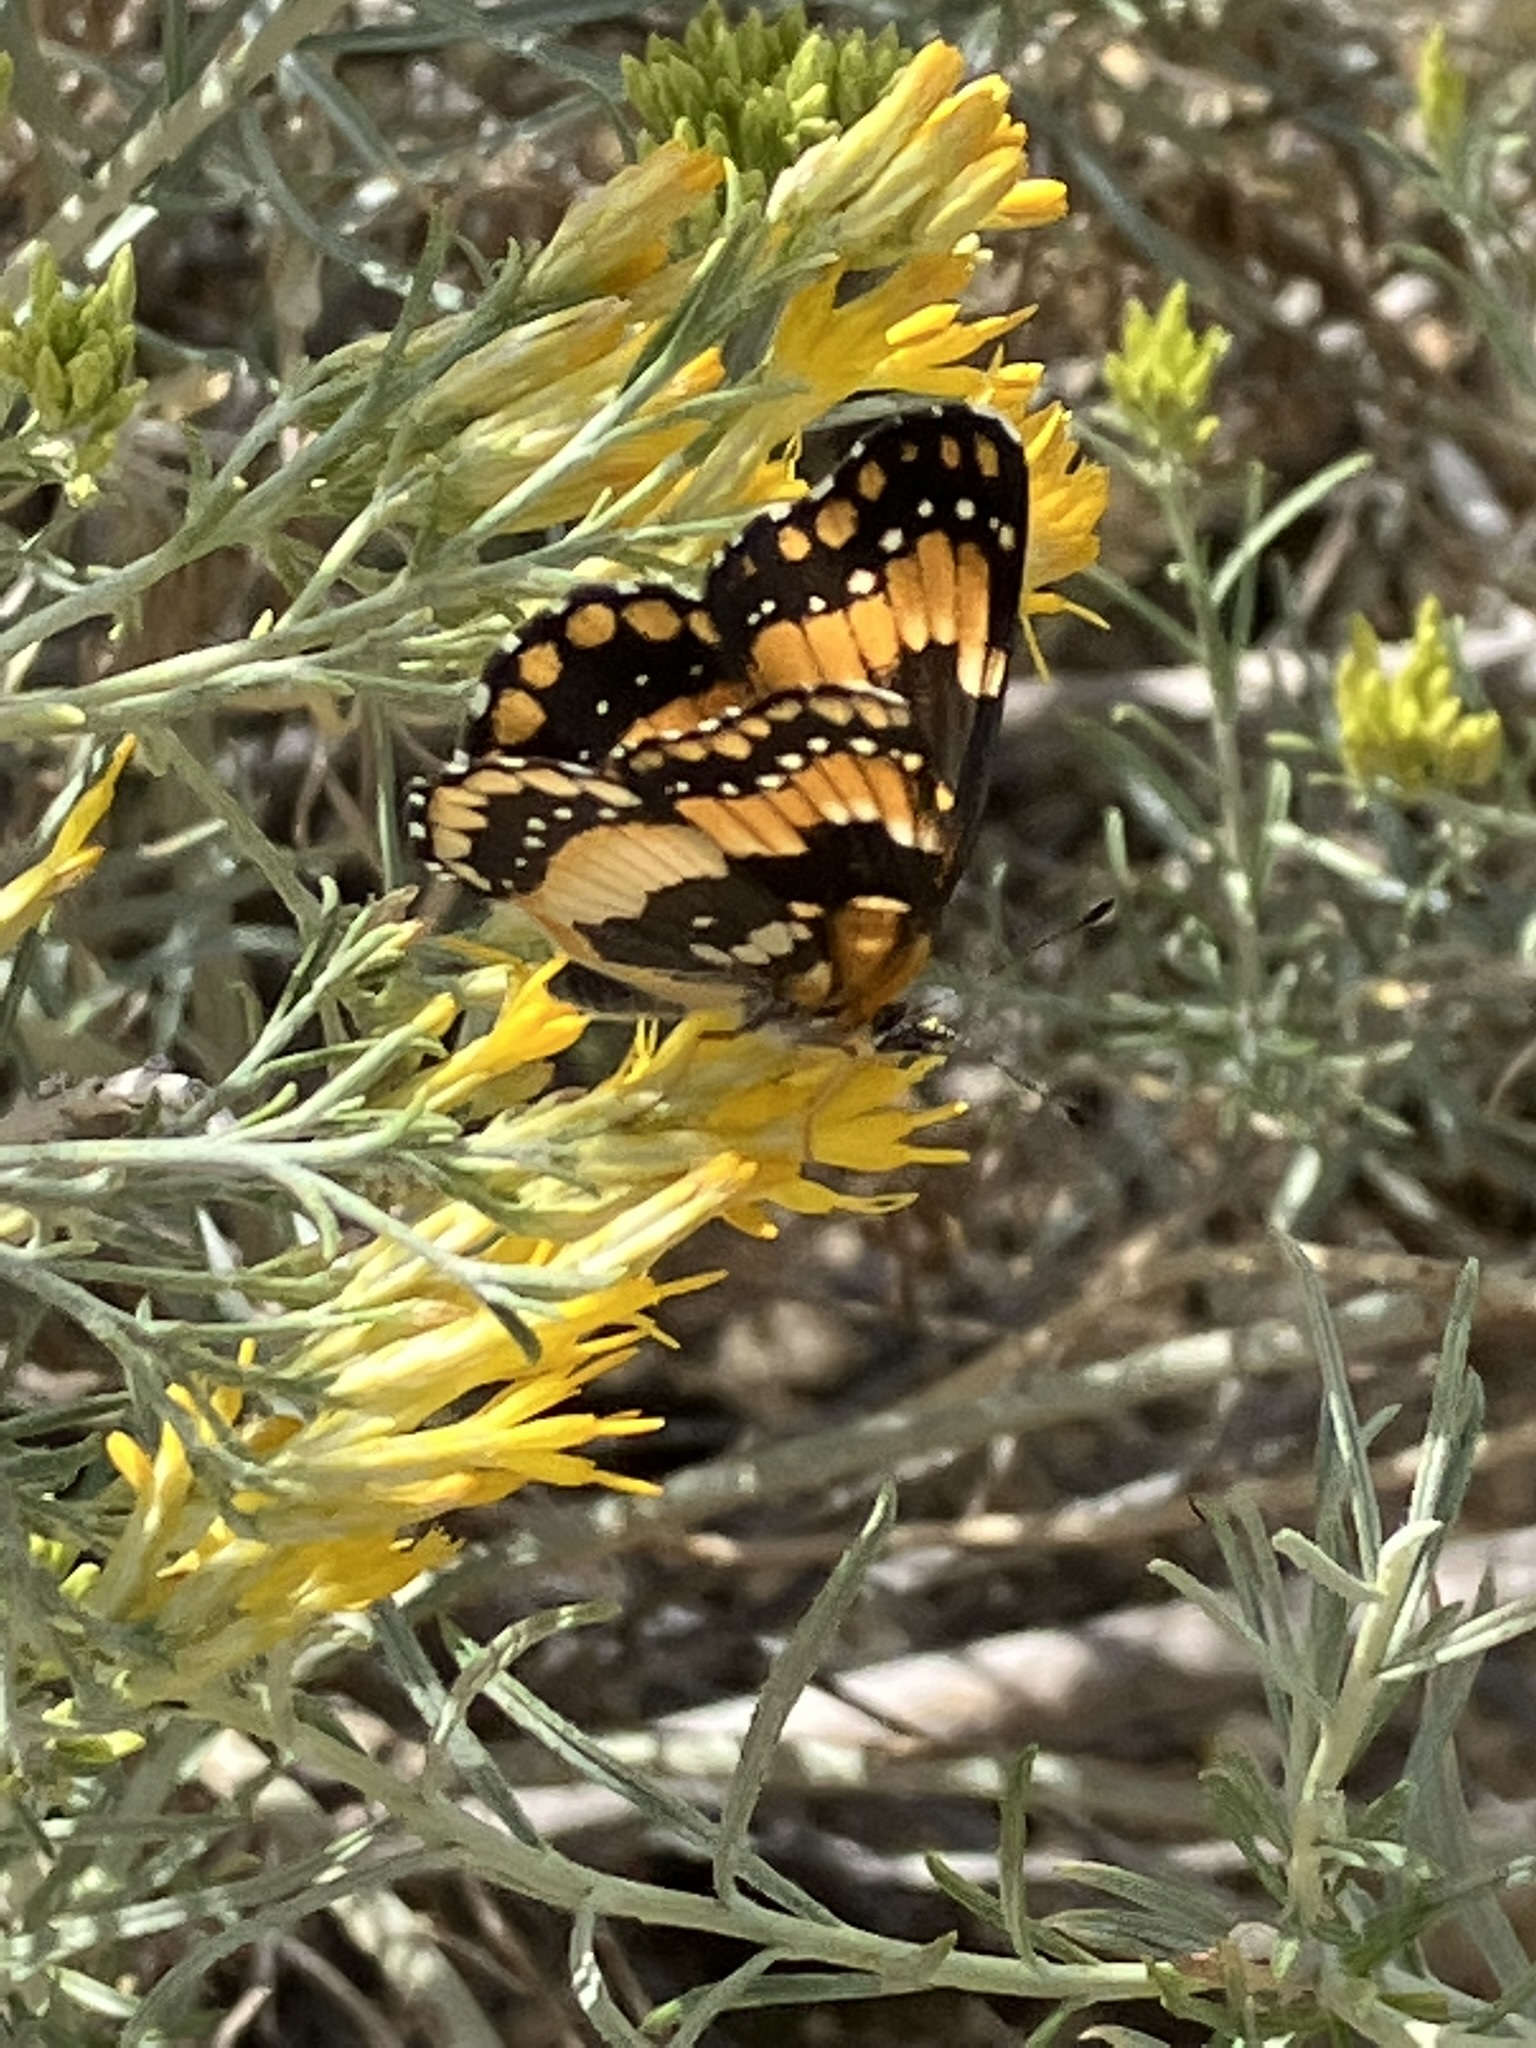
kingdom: Animalia
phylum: Arthropoda
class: Insecta
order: Lepidoptera
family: Nymphalidae
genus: Chlosyne
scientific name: Chlosyne californica
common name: California patch
